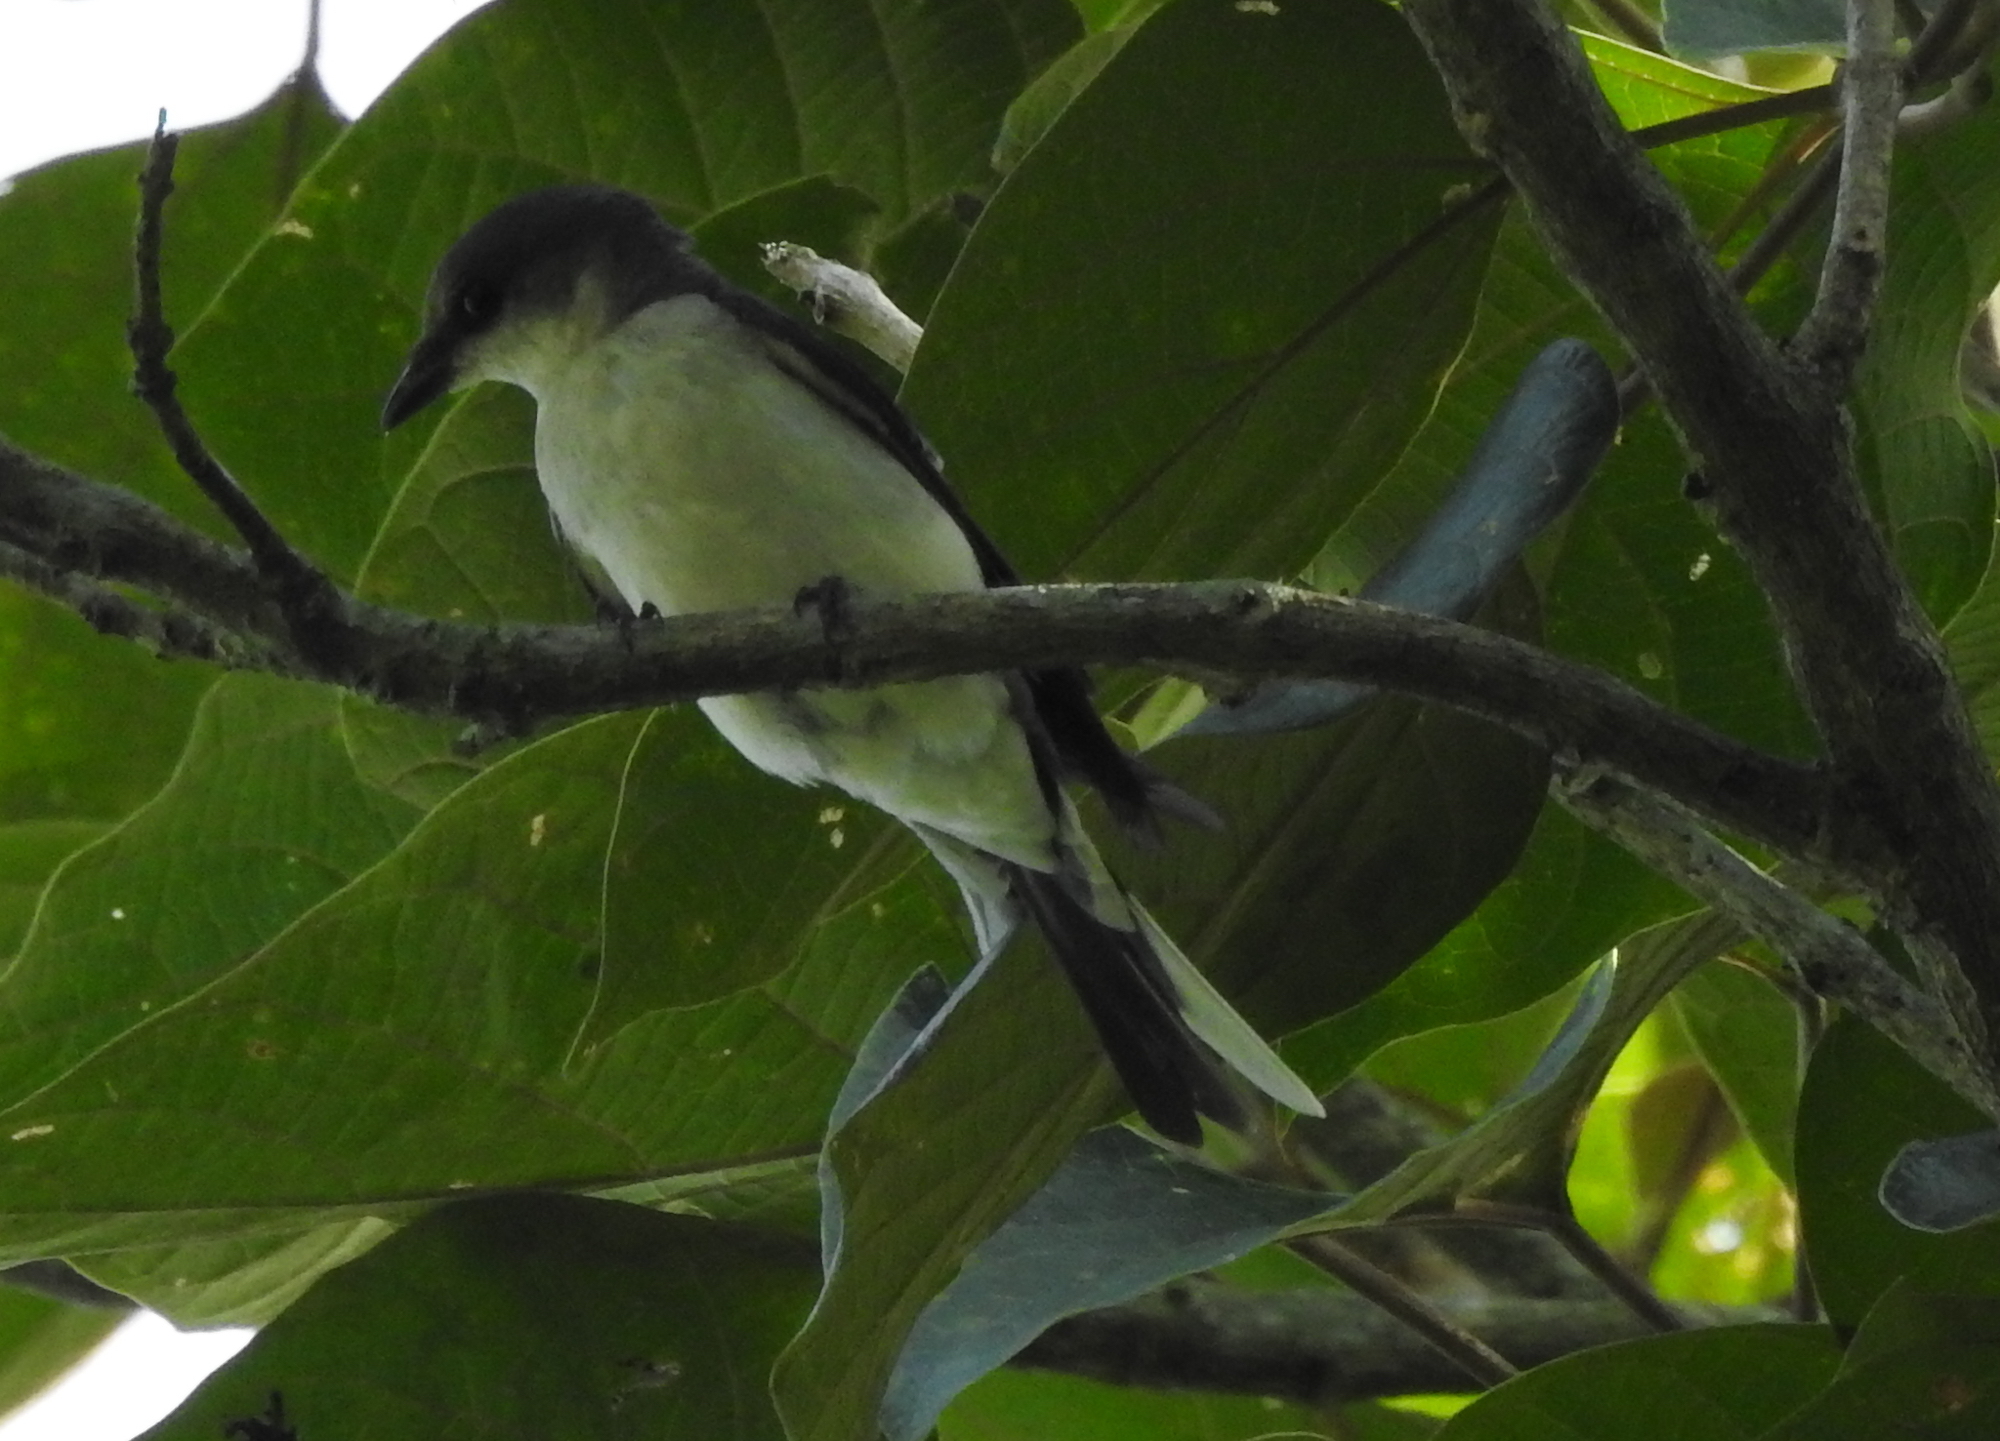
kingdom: Animalia
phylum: Chordata
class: Aves
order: Passeriformes
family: Campephagidae
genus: Pericrocotus
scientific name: Pericrocotus divaricatus
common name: Ashy minivet
